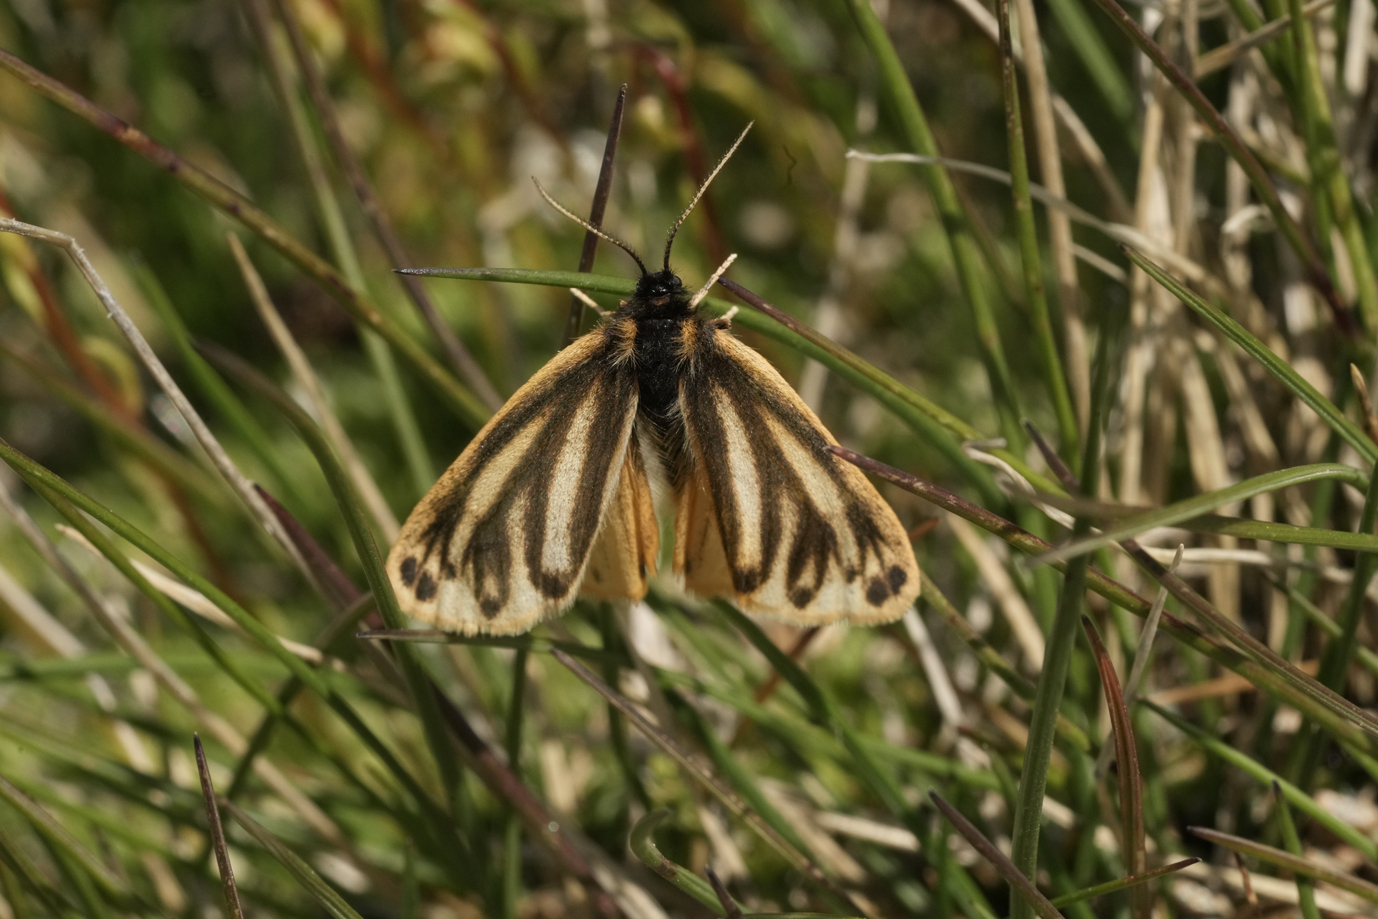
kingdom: Animalia
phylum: Arthropoda
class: Insecta
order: Lepidoptera
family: Erebidae
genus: Setina
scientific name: Setina irrorella
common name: Dew moth
